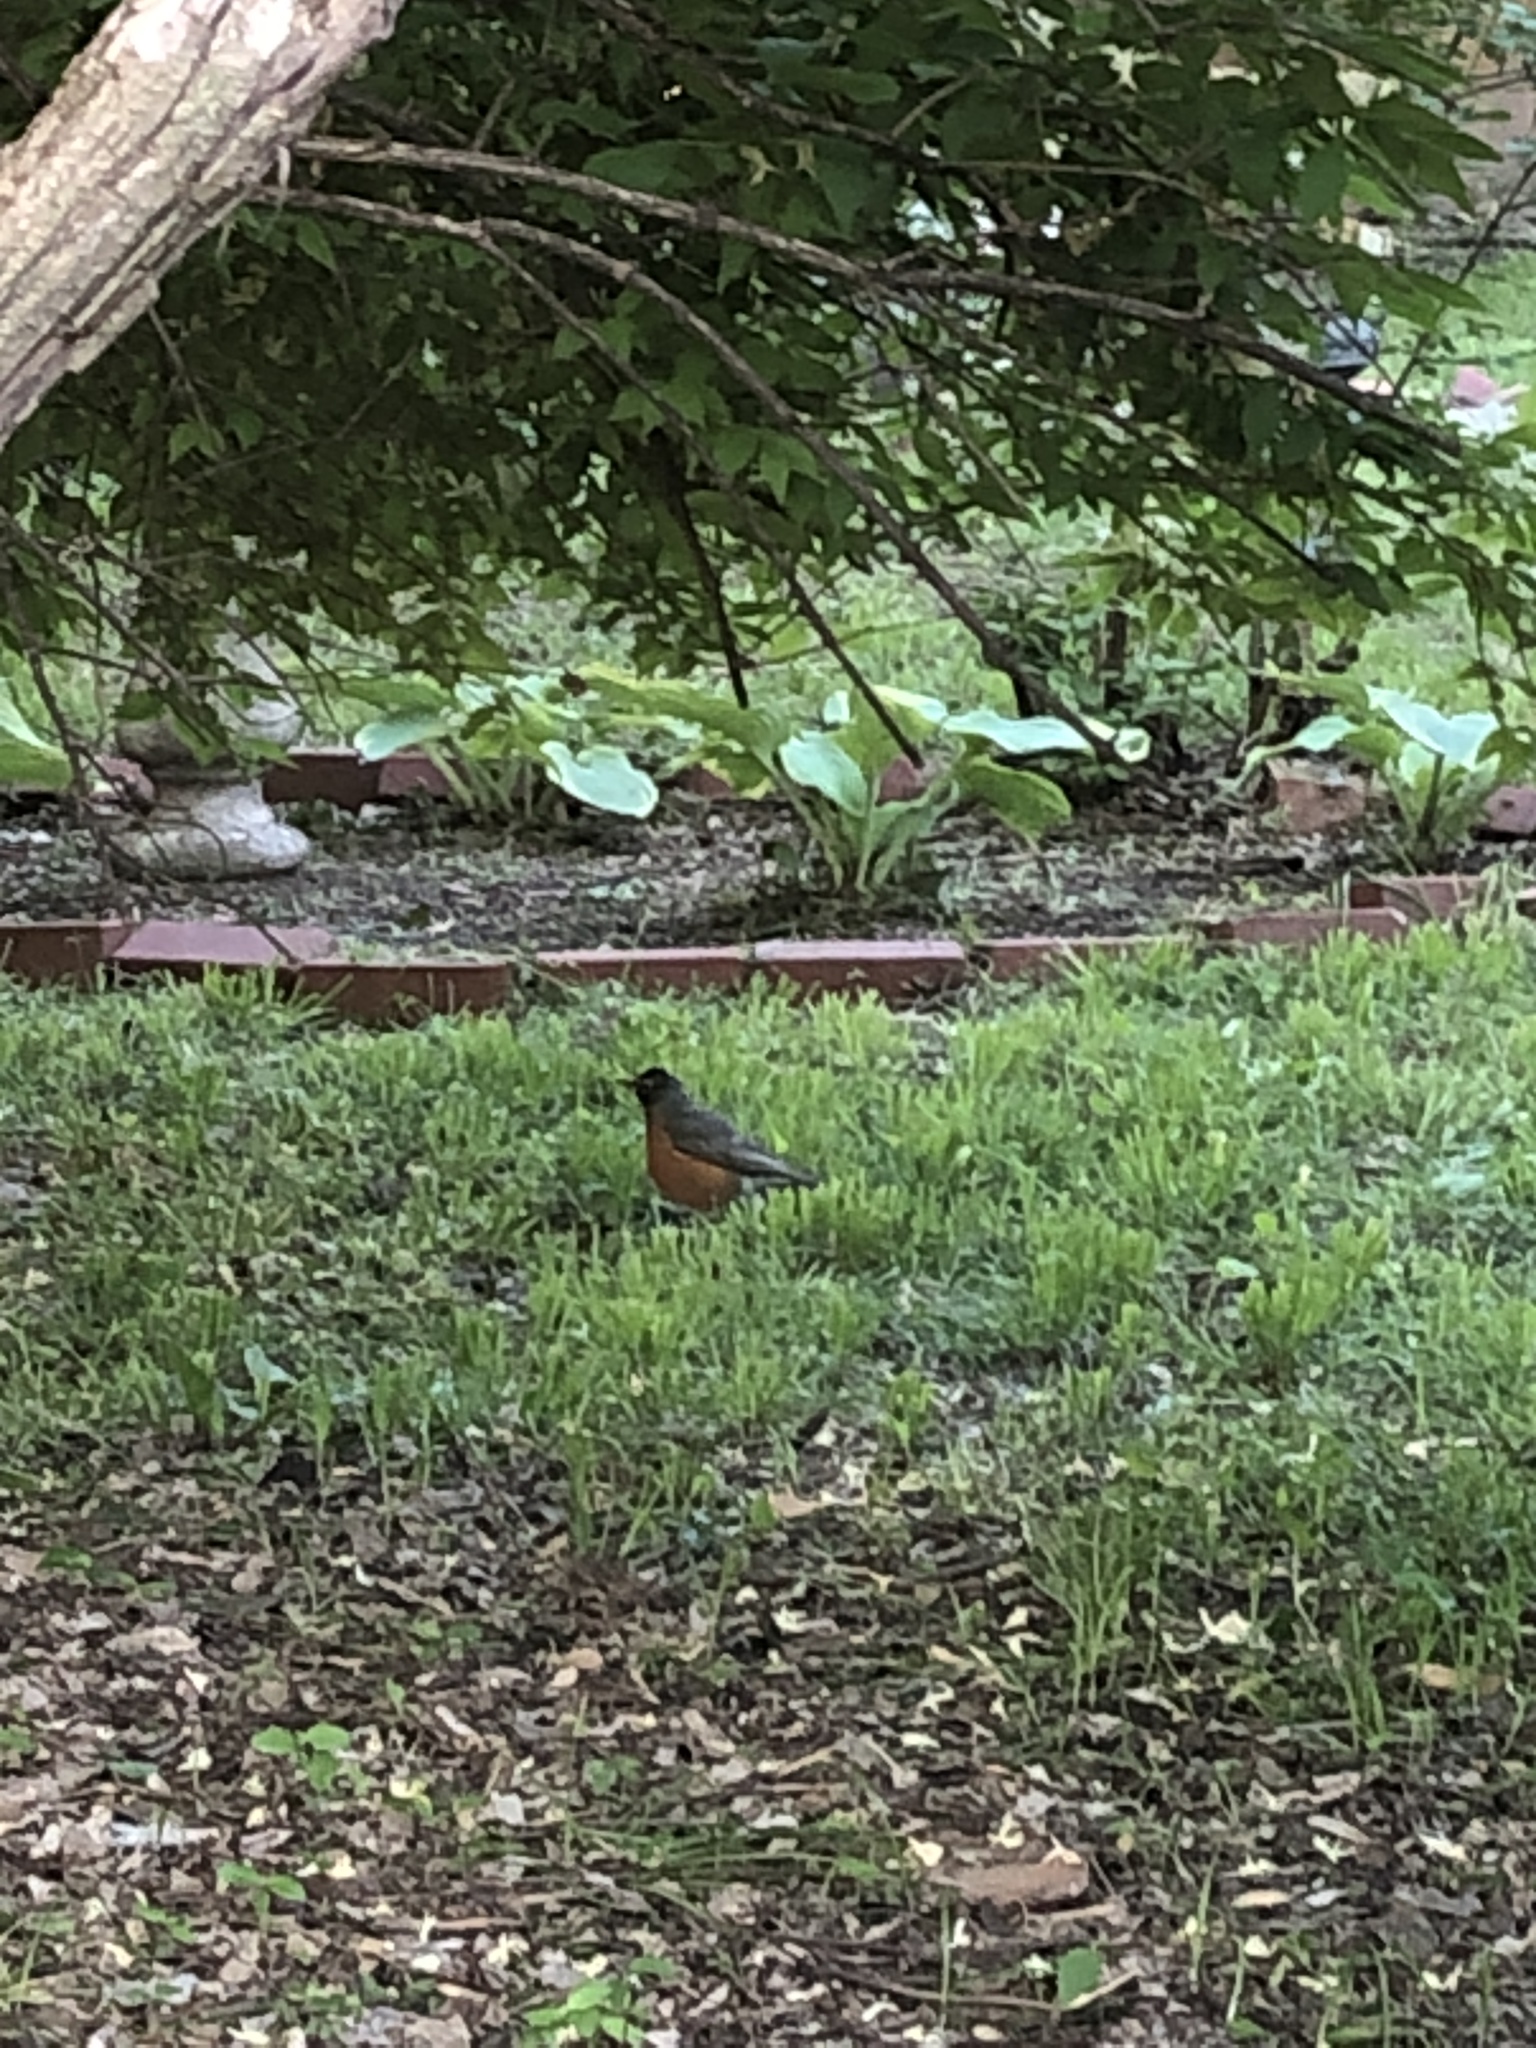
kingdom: Animalia
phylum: Chordata
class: Aves
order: Passeriformes
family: Turdidae
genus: Turdus
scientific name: Turdus migratorius
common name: American robin
